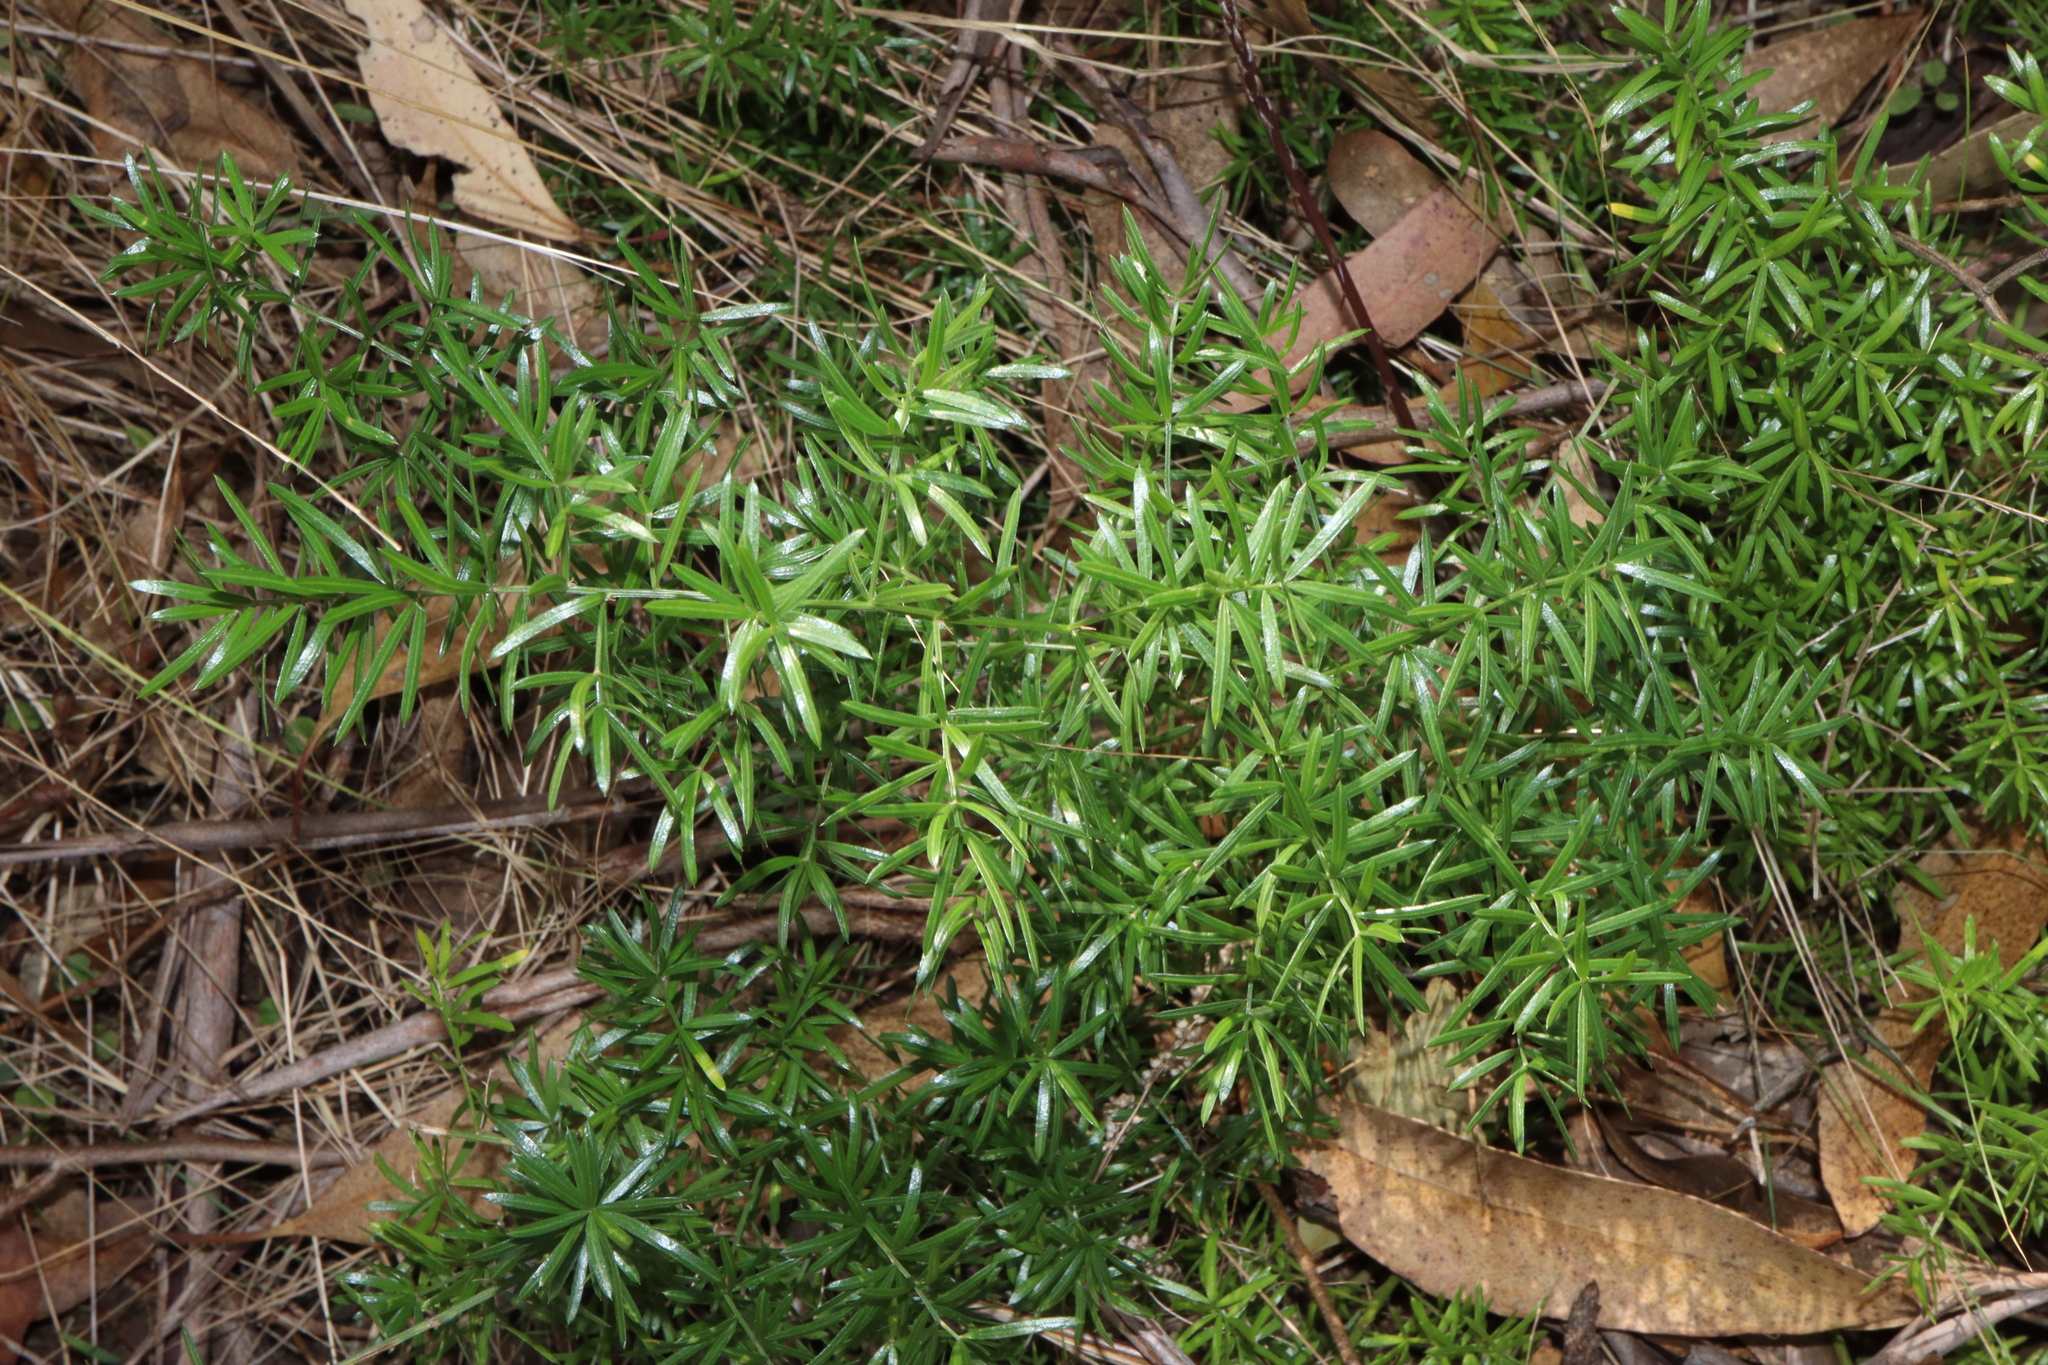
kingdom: Plantae
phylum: Tracheophyta
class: Liliopsida
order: Asparagales
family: Asparagaceae
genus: Asparagus
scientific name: Asparagus aethiopicus
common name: Sprenger's asparagus fern
